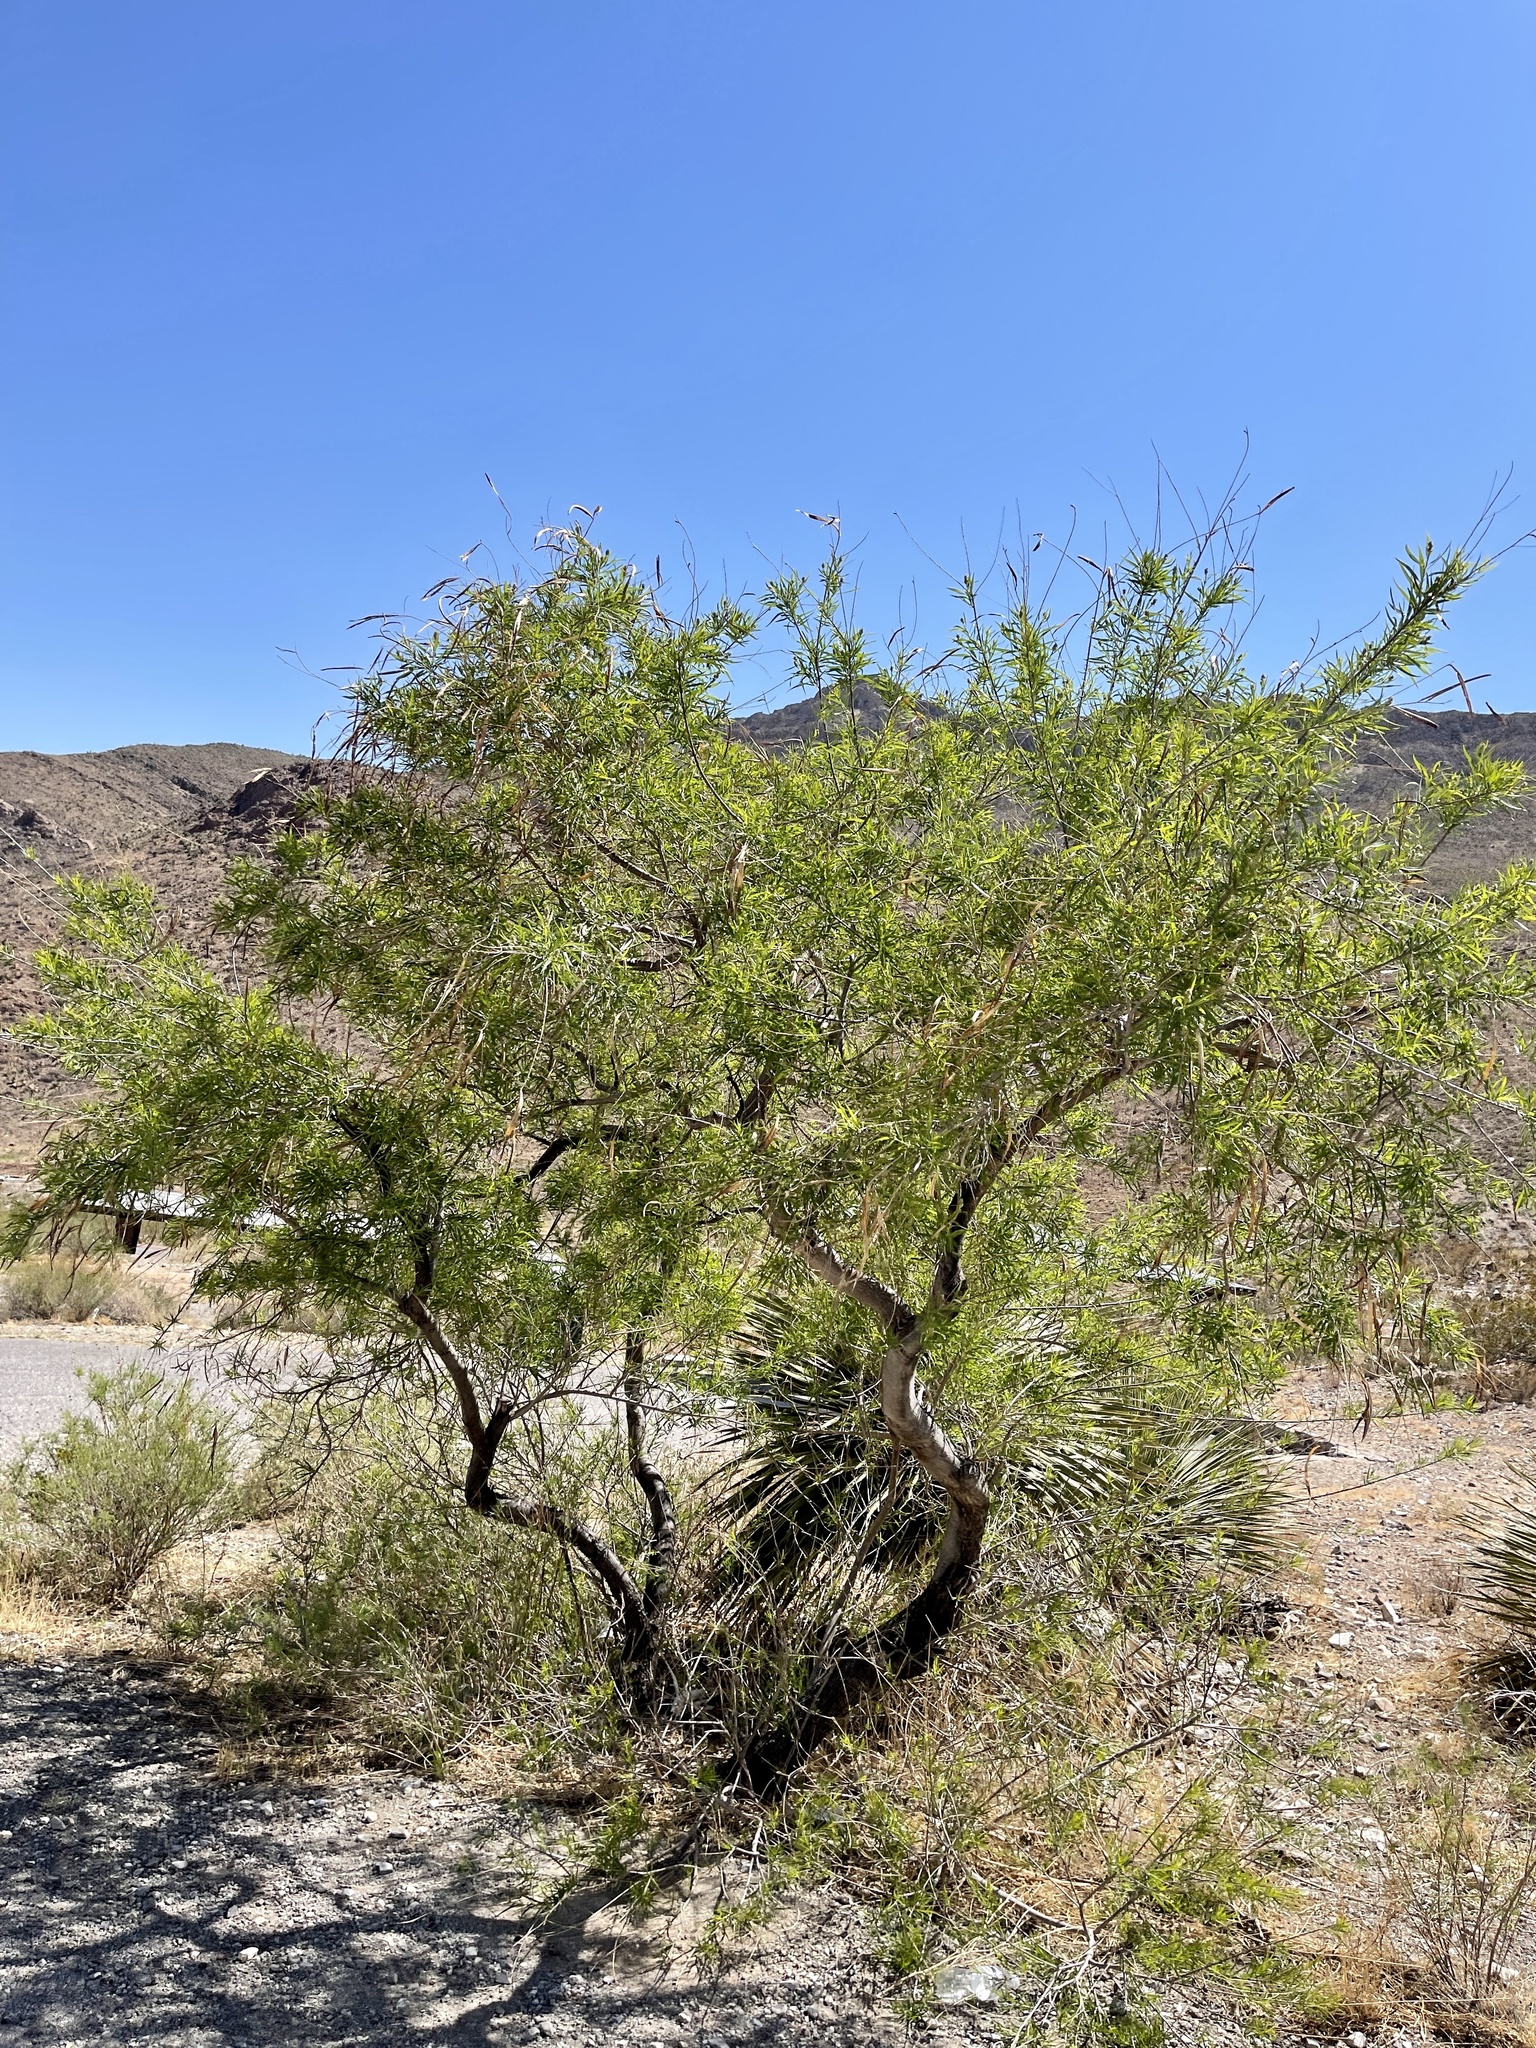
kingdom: Plantae
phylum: Tracheophyta
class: Magnoliopsida
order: Lamiales
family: Bignoniaceae
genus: Chilopsis
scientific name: Chilopsis linearis
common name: Desert-willow
